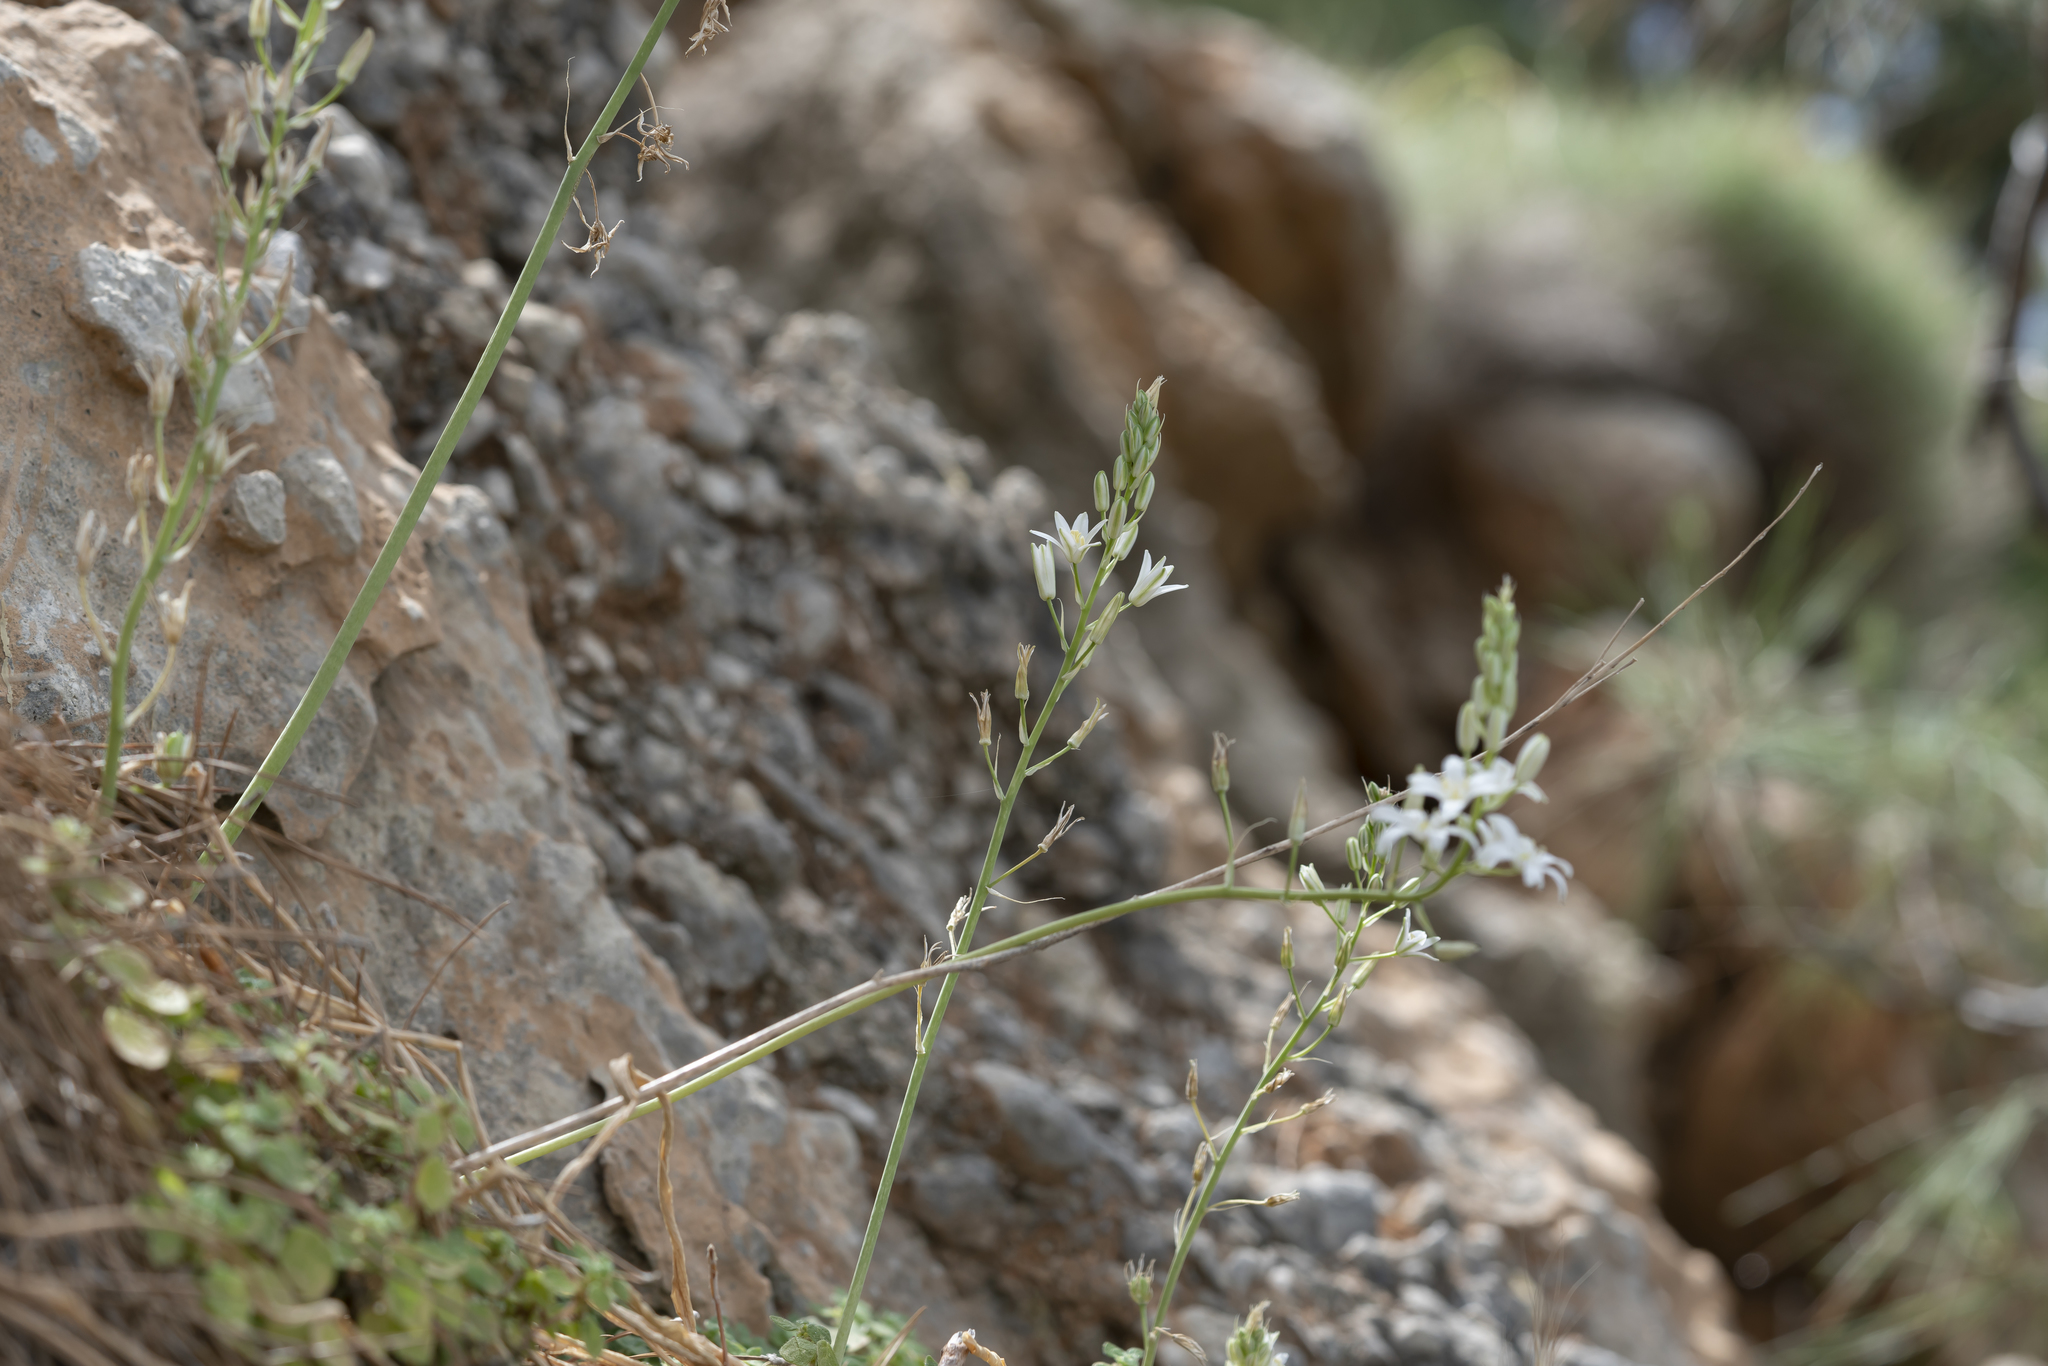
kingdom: Plantae
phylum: Tracheophyta
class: Liliopsida
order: Asparagales
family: Asparagaceae
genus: Ornithogalum
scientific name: Ornithogalum narbonense
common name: Bath-asparagus
